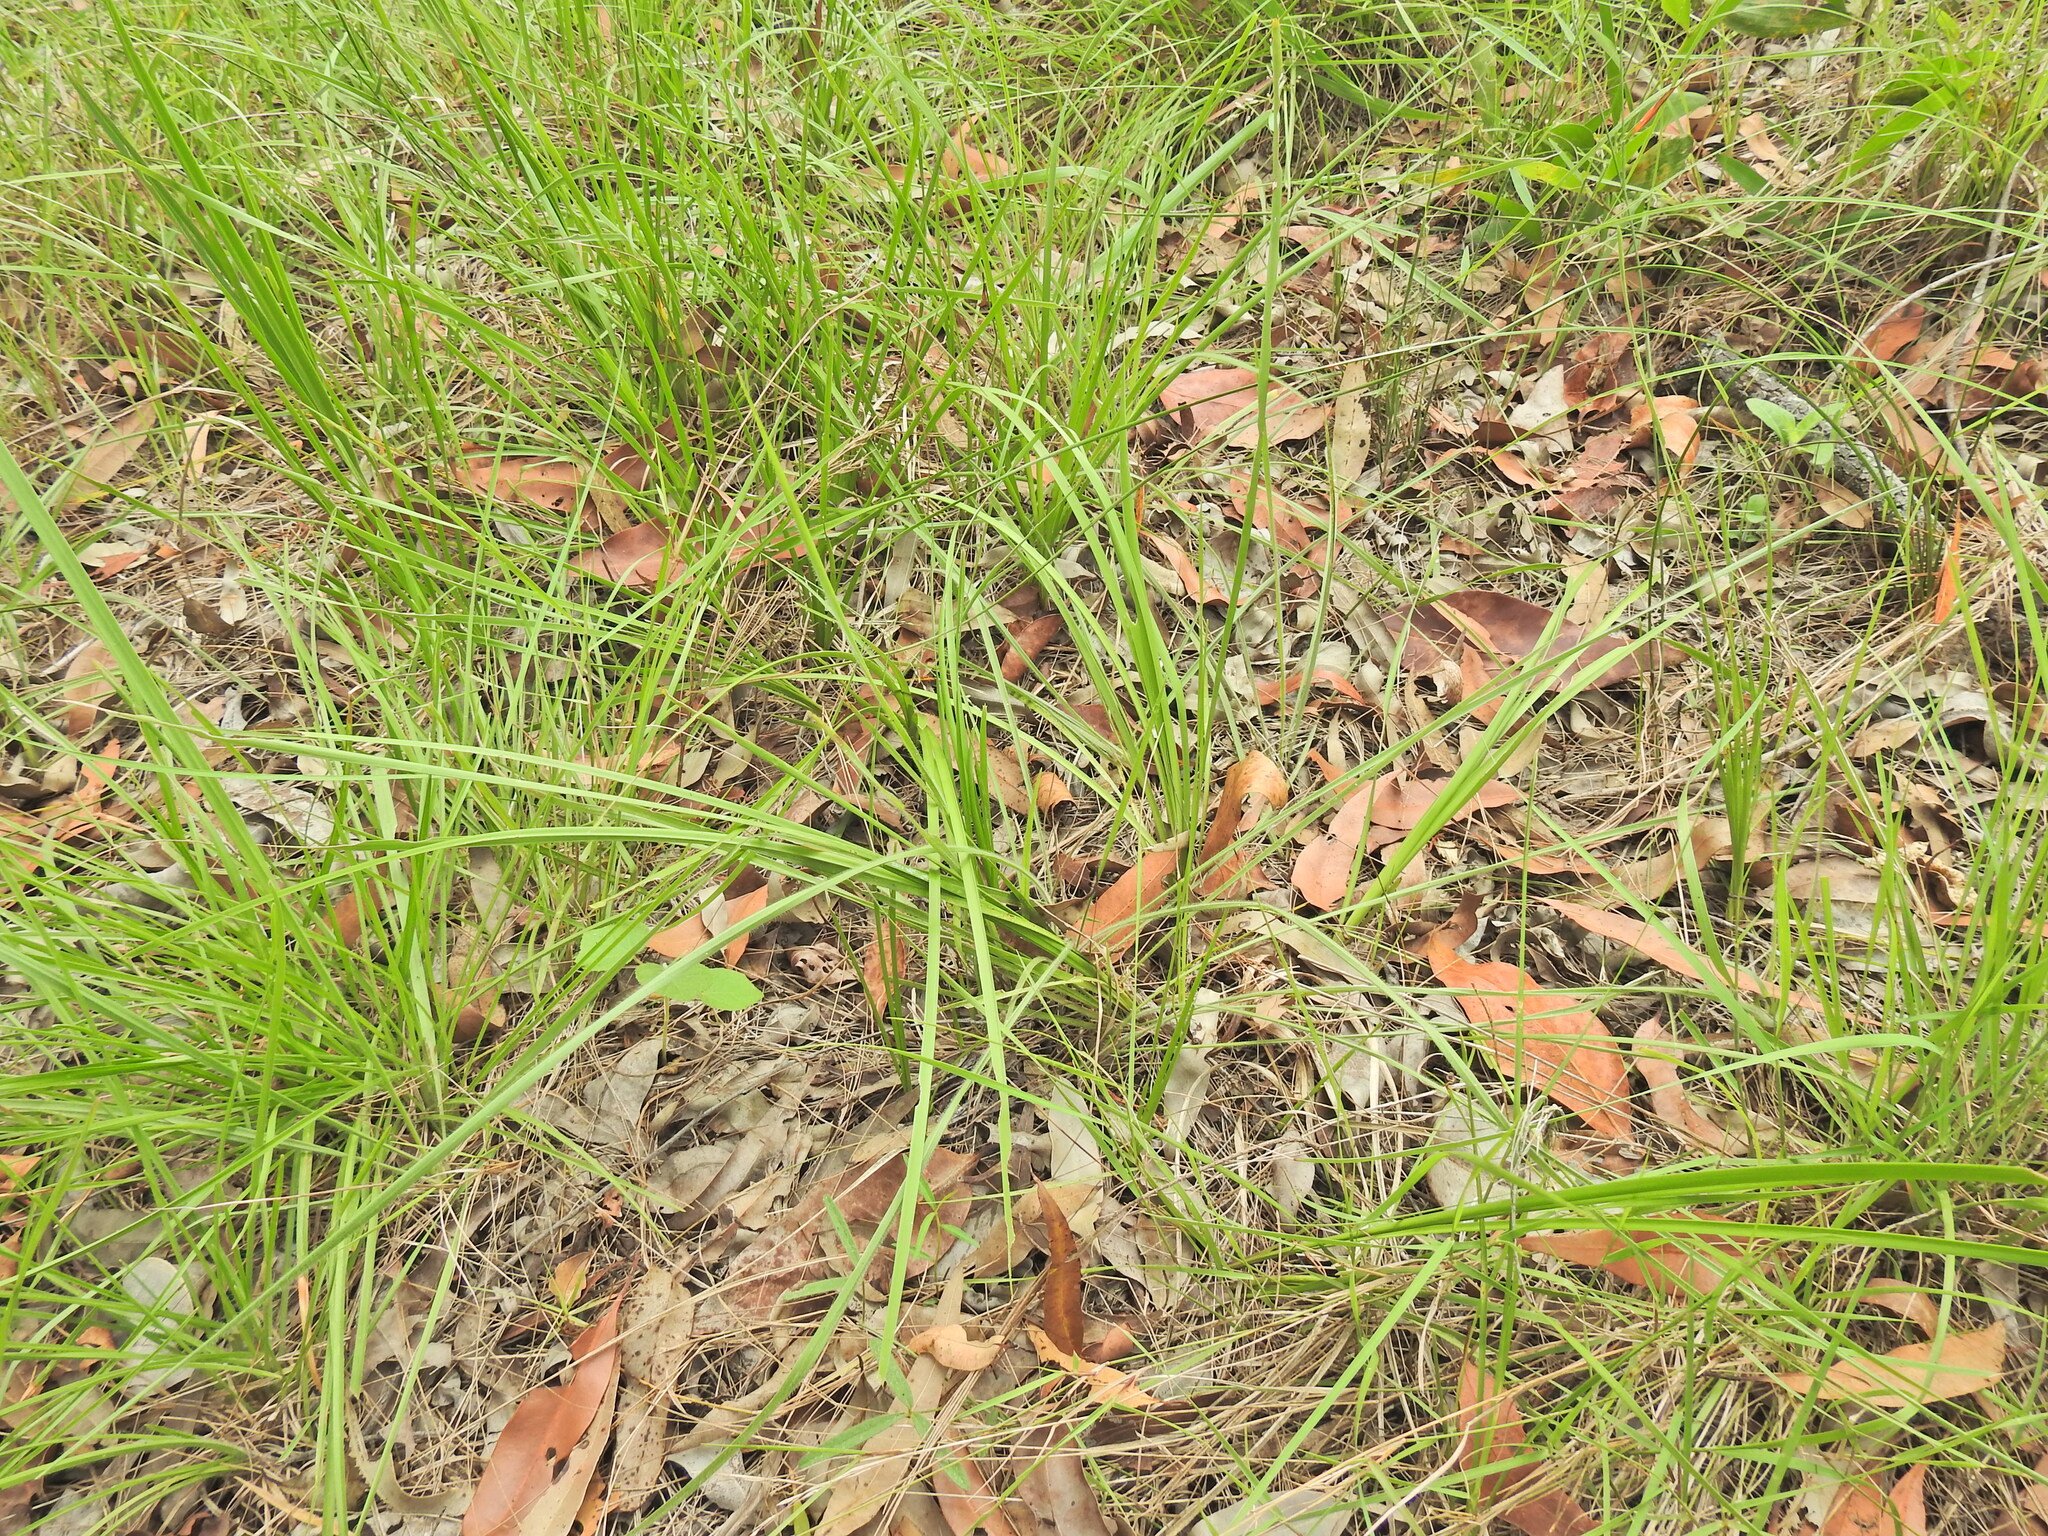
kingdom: Plantae
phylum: Tracheophyta
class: Liliopsida
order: Asparagales
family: Asparagaceae
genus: Lomandra
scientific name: Lomandra confertifolia
